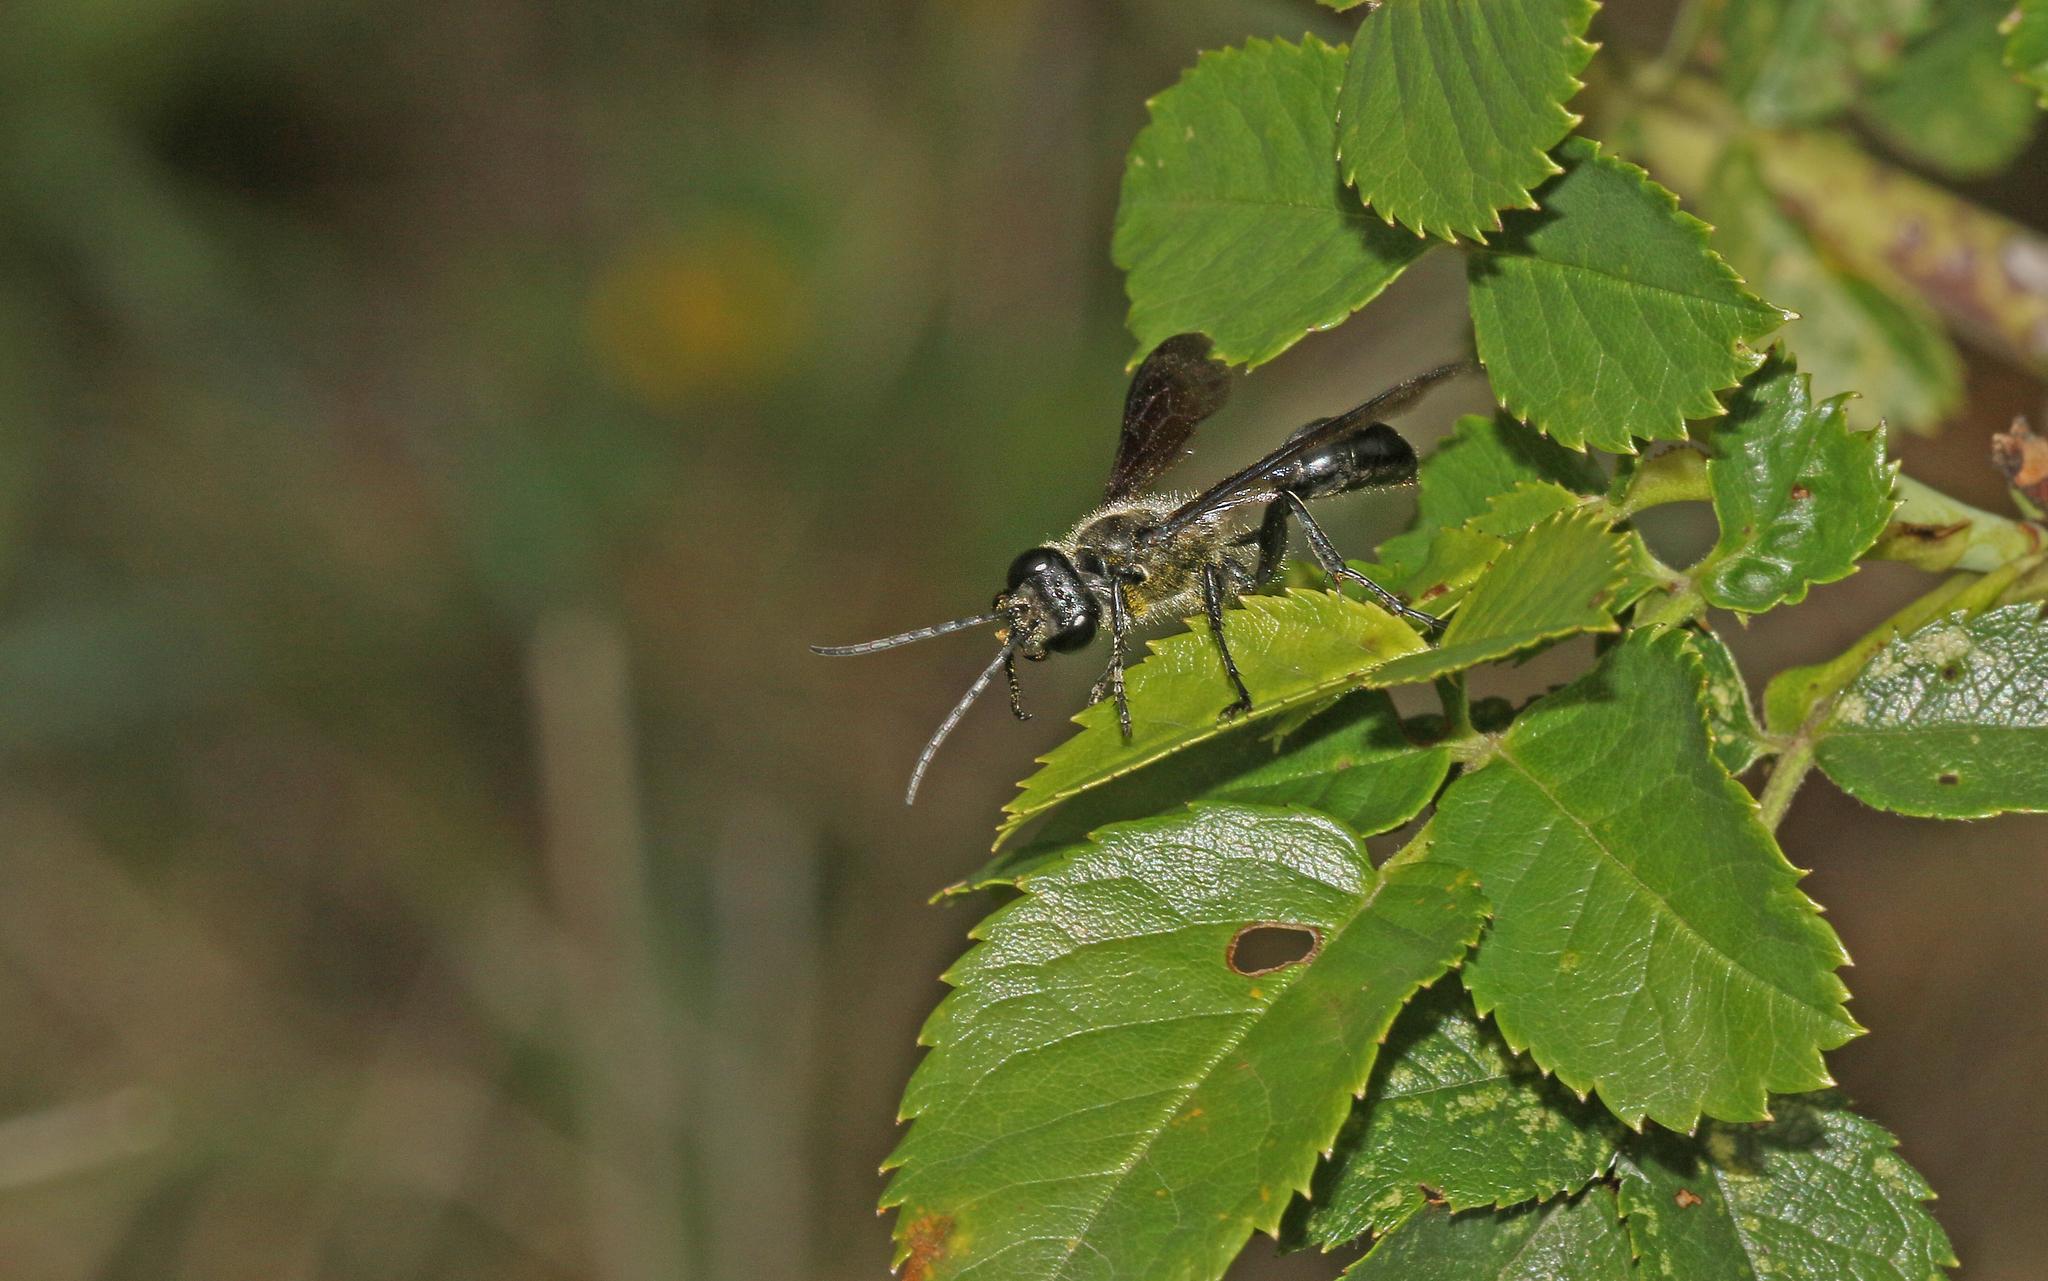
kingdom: Animalia
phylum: Arthropoda
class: Insecta
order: Hymenoptera
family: Sphecidae
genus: Isodontia
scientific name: Isodontia mexicana
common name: Mud dauber
